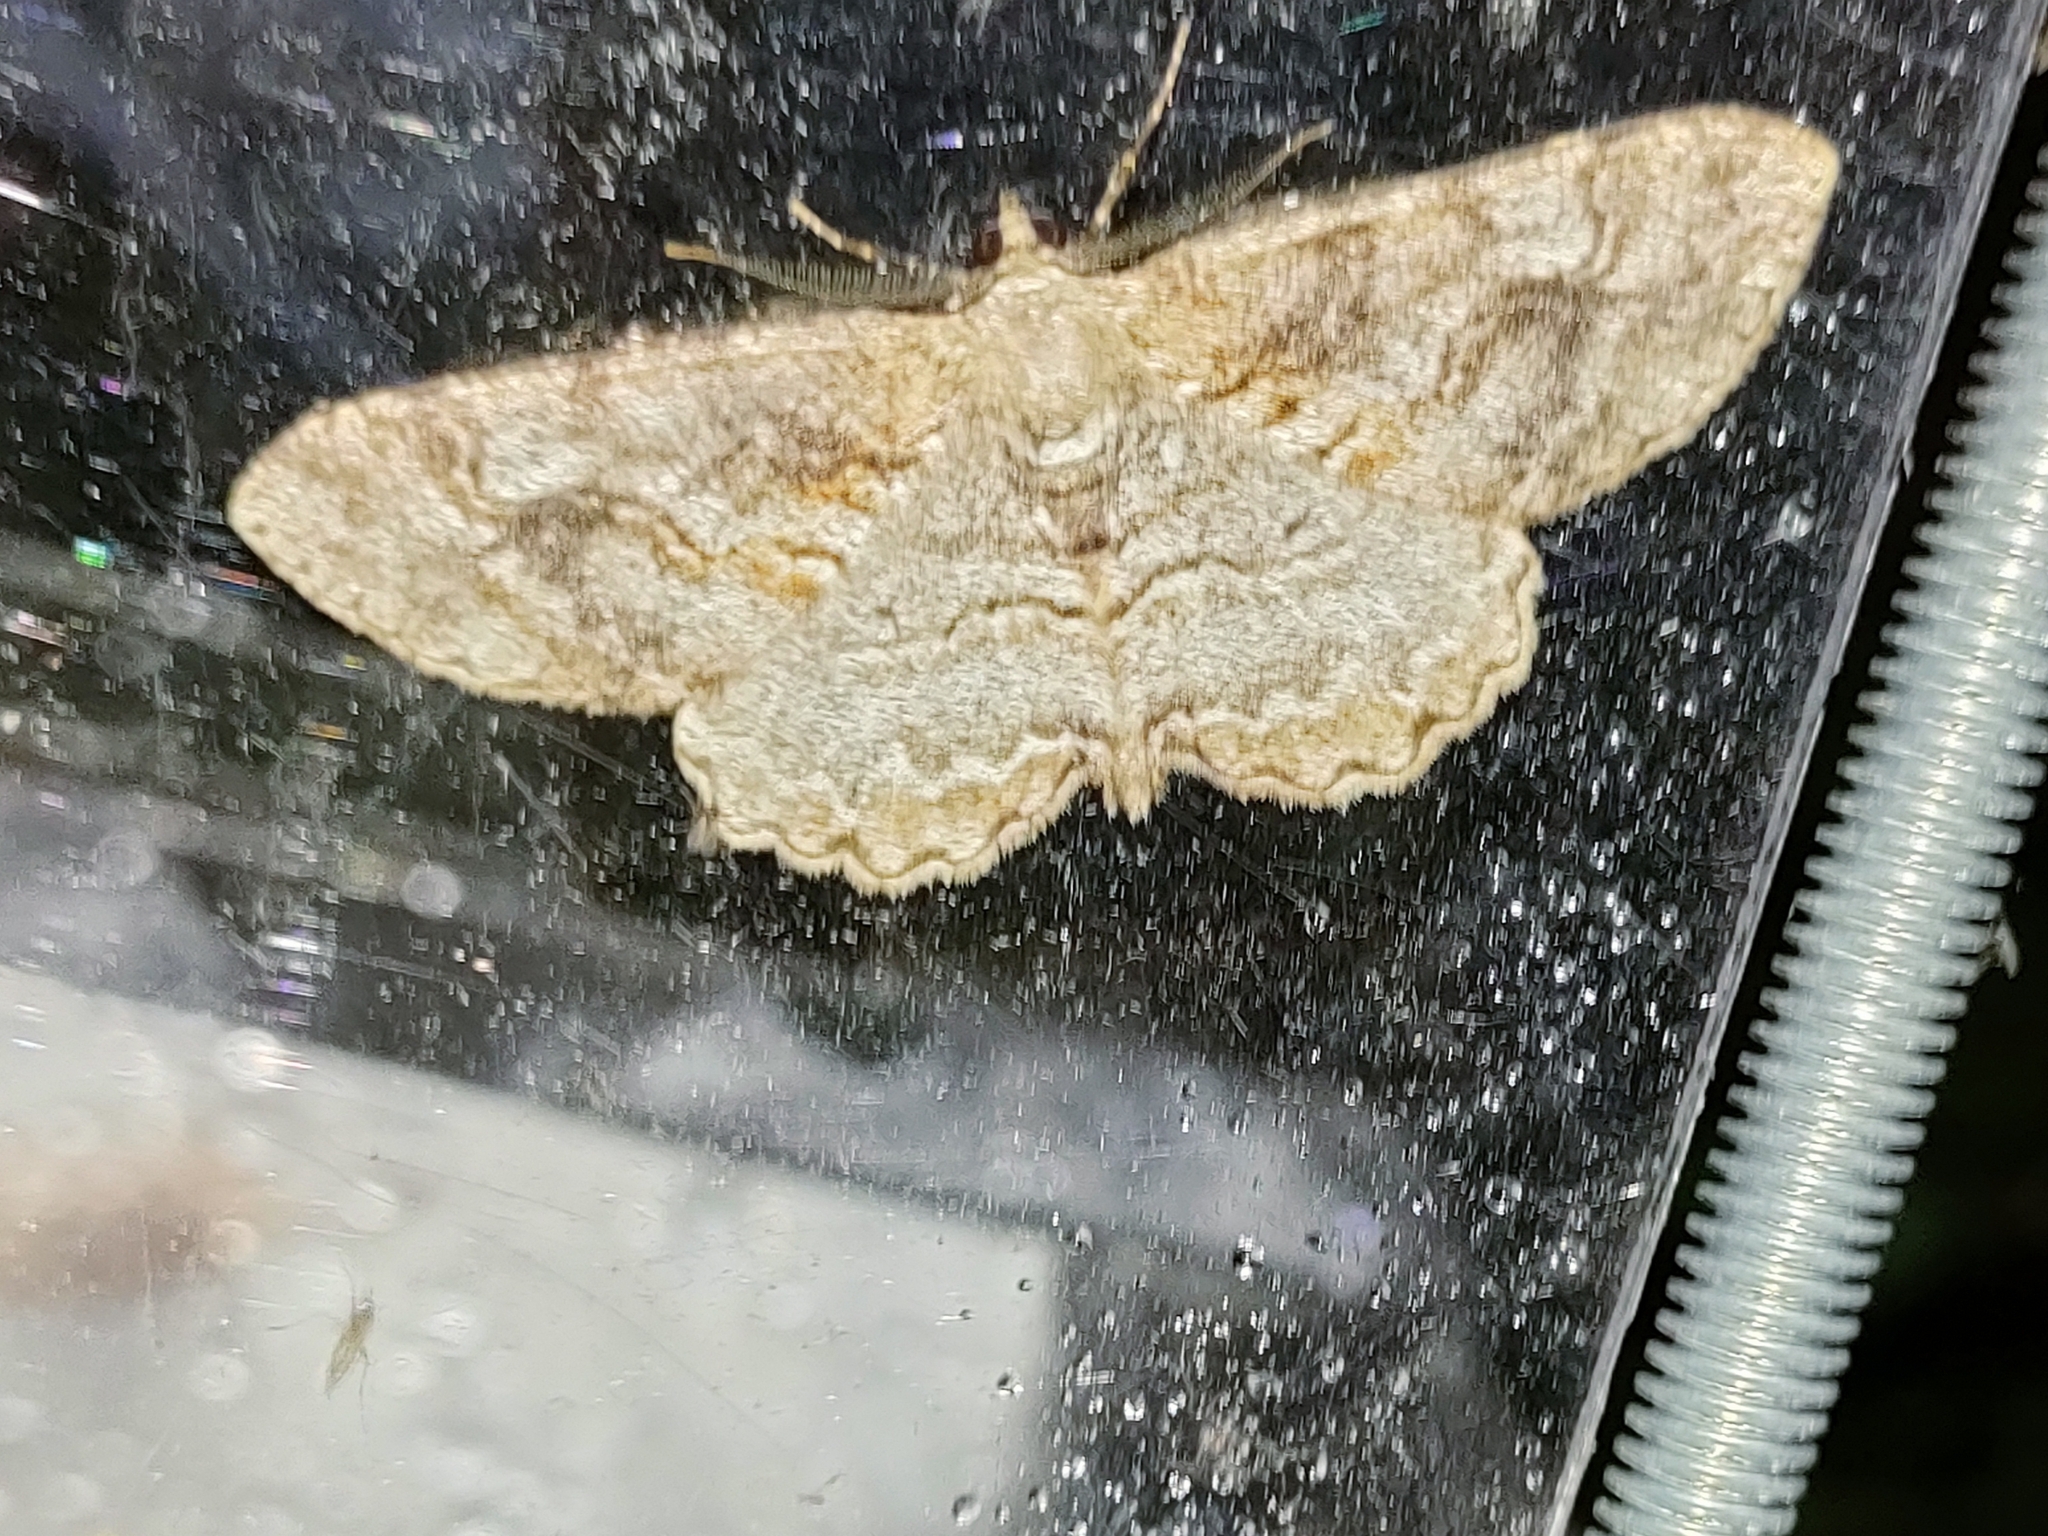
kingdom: Animalia
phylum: Arthropoda
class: Insecta
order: Lepidoptera
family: Geometridae
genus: Alcis
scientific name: Alcis repandata
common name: Mottled beauty
